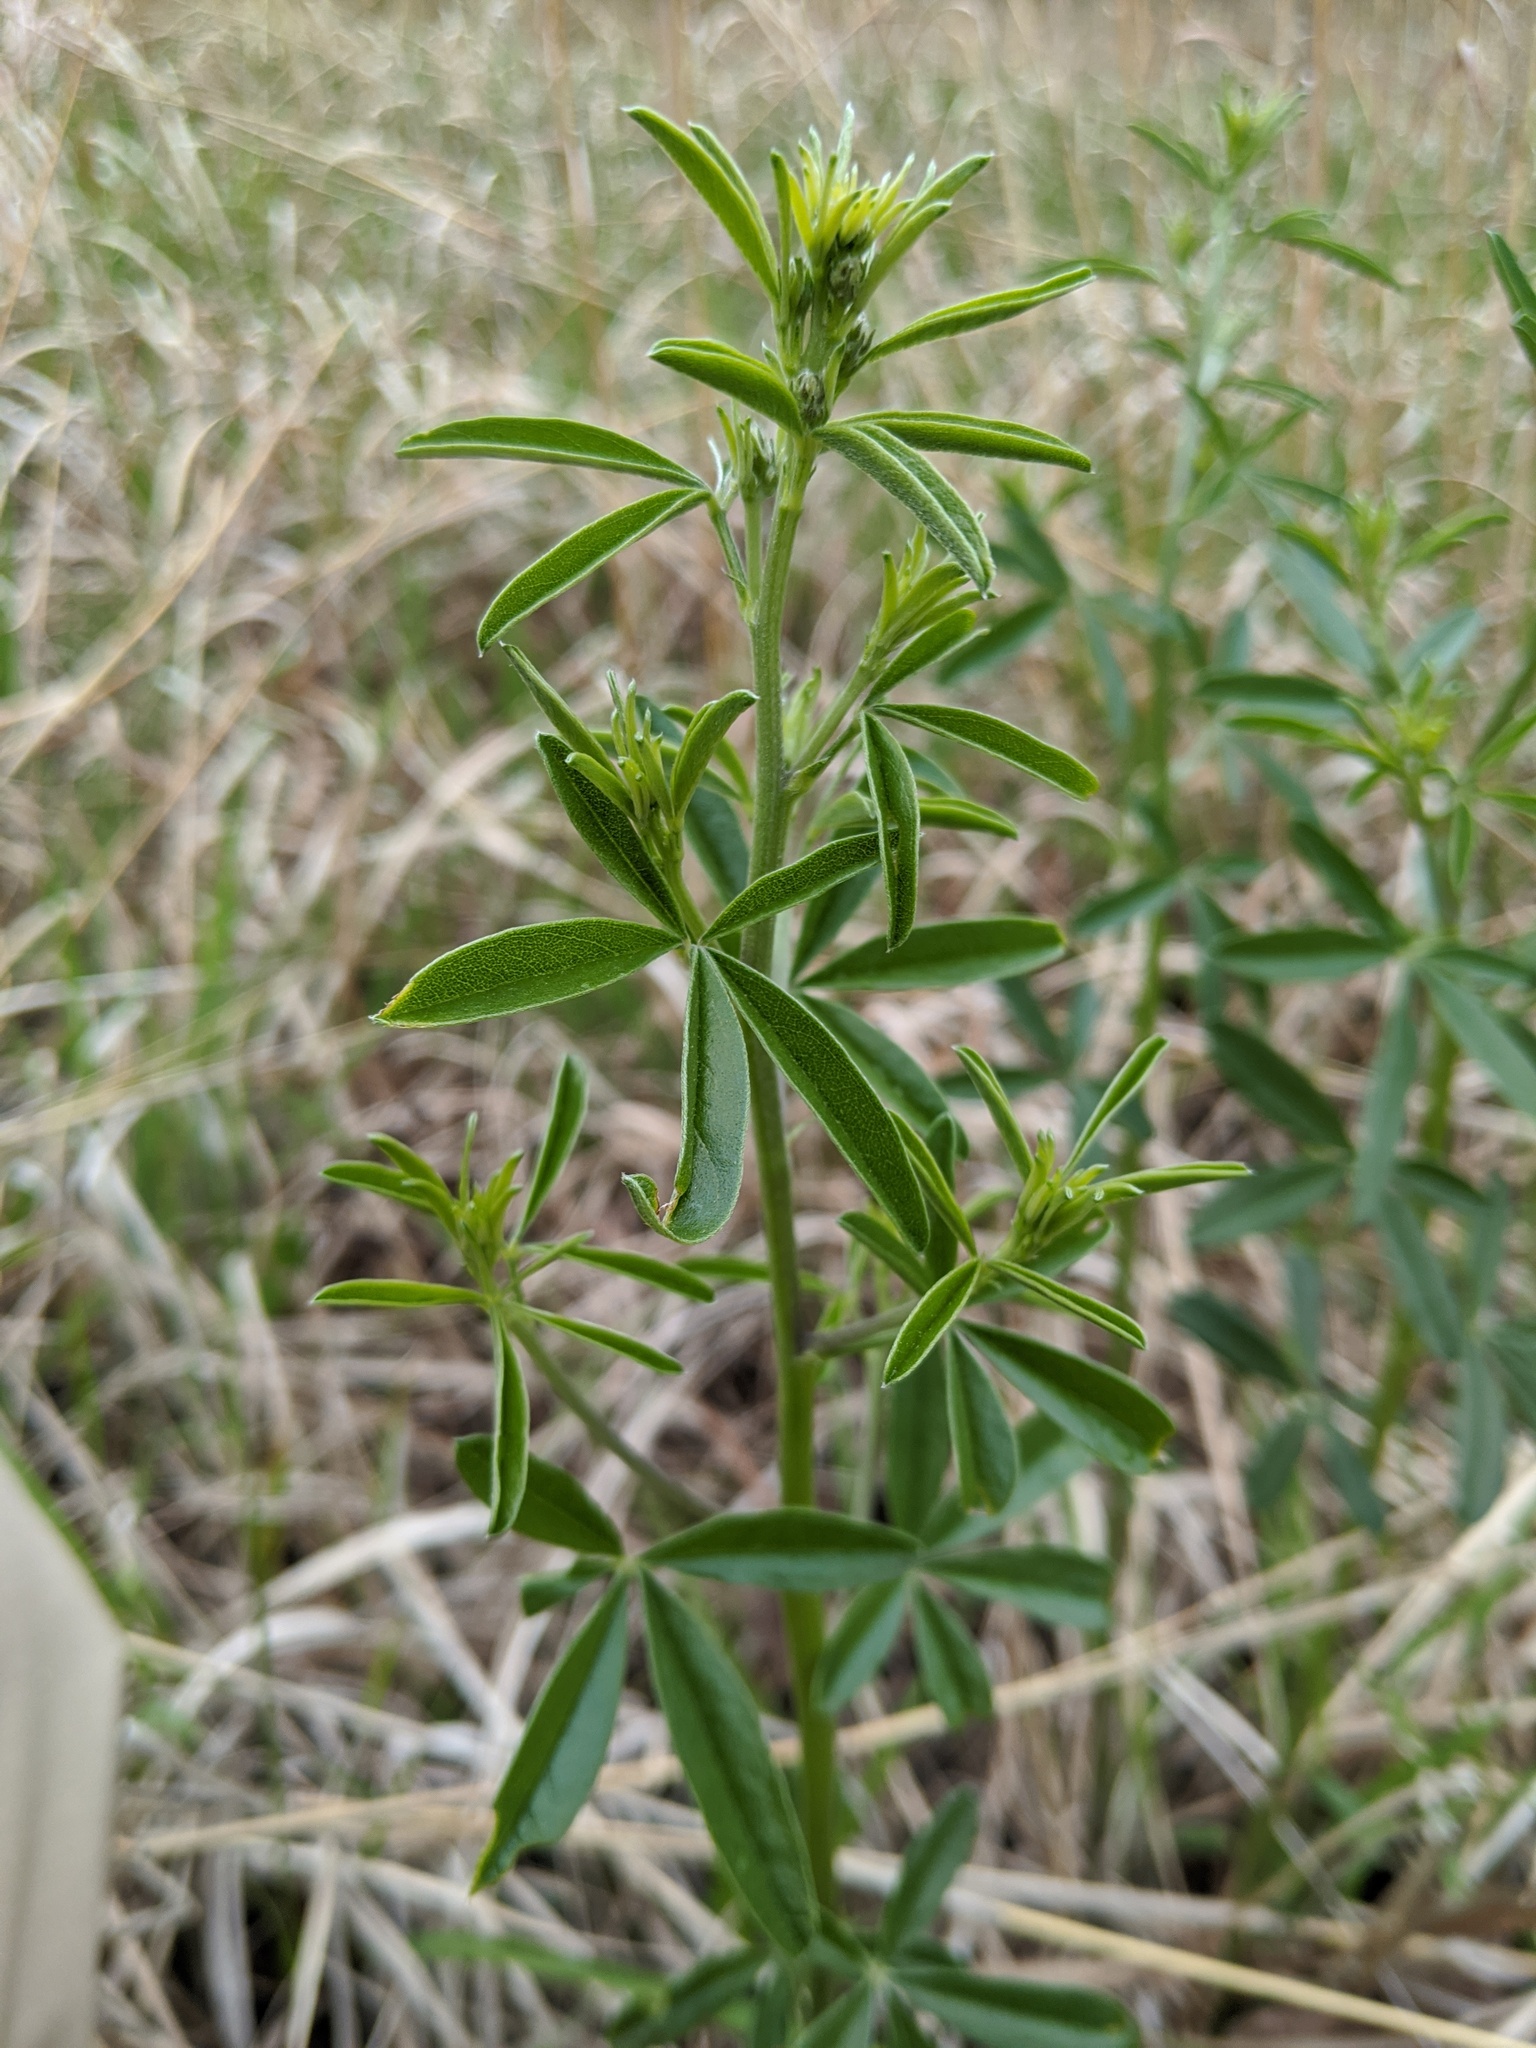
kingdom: Plantae
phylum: Tracheophyta
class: Magnoliopsida
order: Fabales
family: Fabaceae
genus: Pediomelum
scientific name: Pediomelum tenuiflorum
